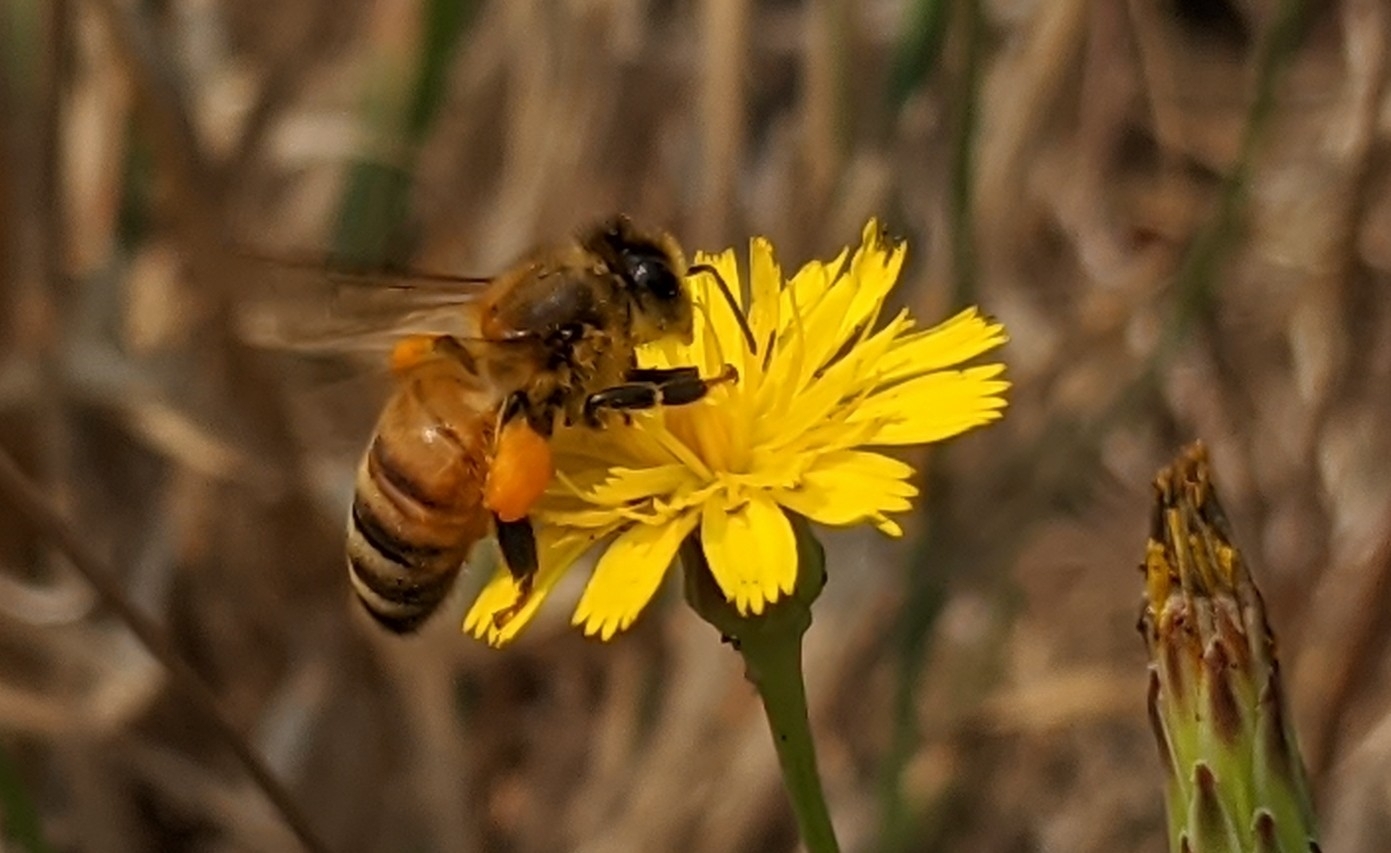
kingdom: Animalia
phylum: Arthropoda
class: Insecta
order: Hymenoptera
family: Apidae
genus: Apis
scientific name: Apis mellifera
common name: Honey bee
